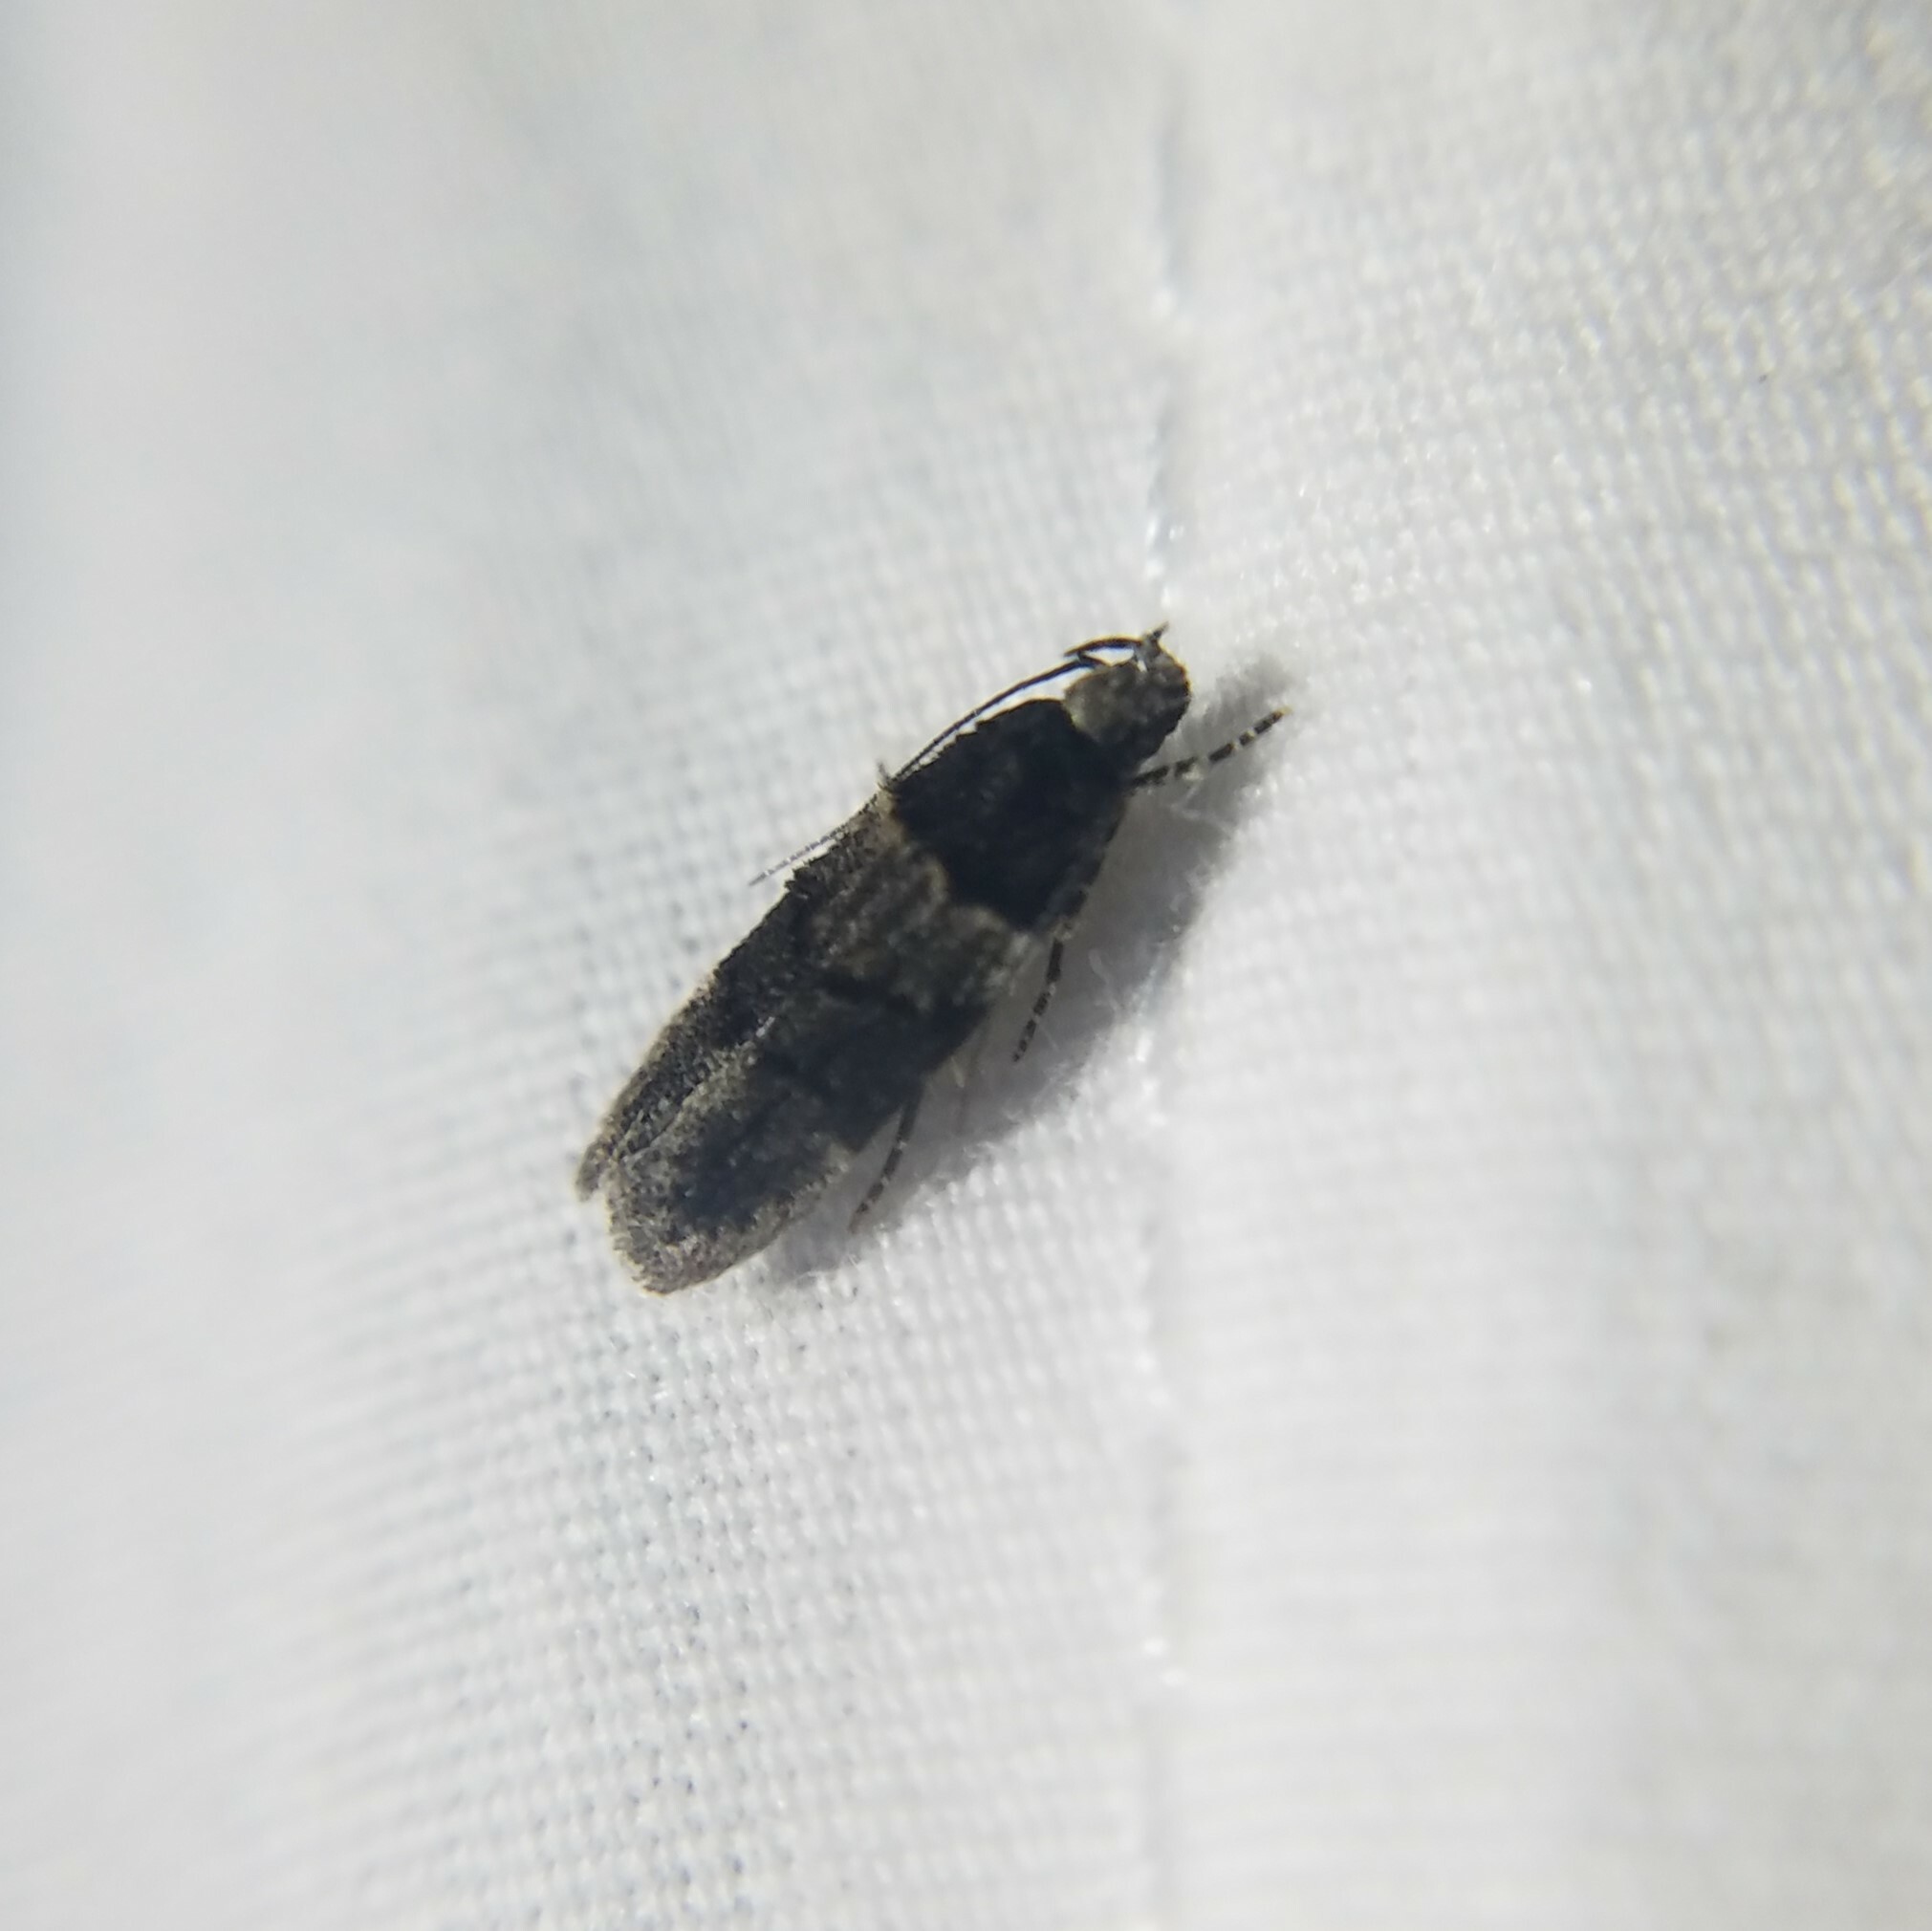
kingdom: Animalia
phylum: Arthropoda
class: Insecta
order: Lepidoptera
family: Gelechiidae
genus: Pubitelphusa
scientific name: Pubitelphusa latifasciella
